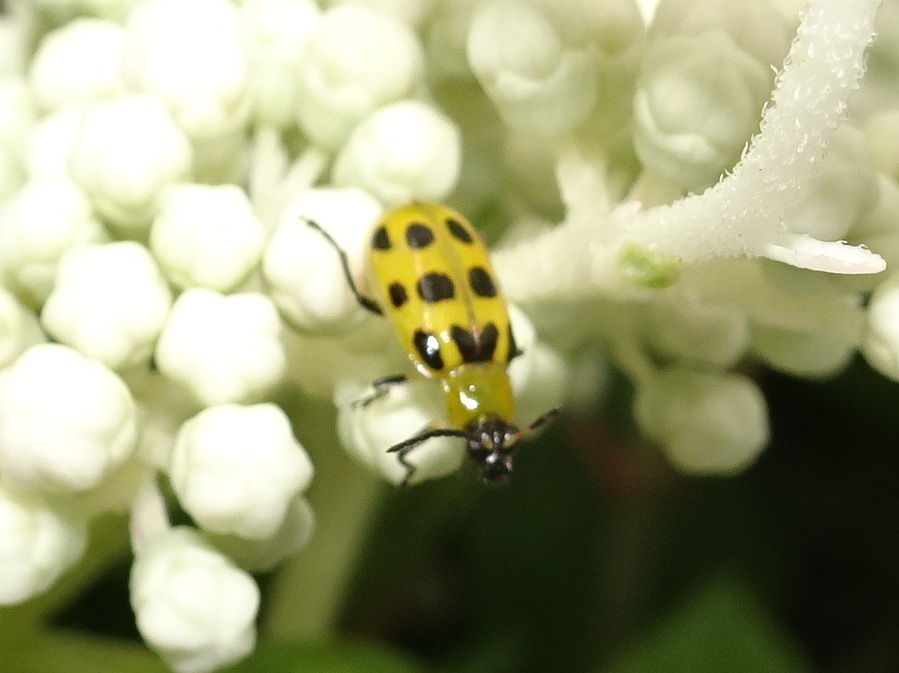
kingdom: Animalia
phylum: Arthropoda
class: Insecta
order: Coleoptera
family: Chrysomelidae
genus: Diabrotica
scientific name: Diabrotica undecimpunctata
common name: Spotted cucumber beetle
